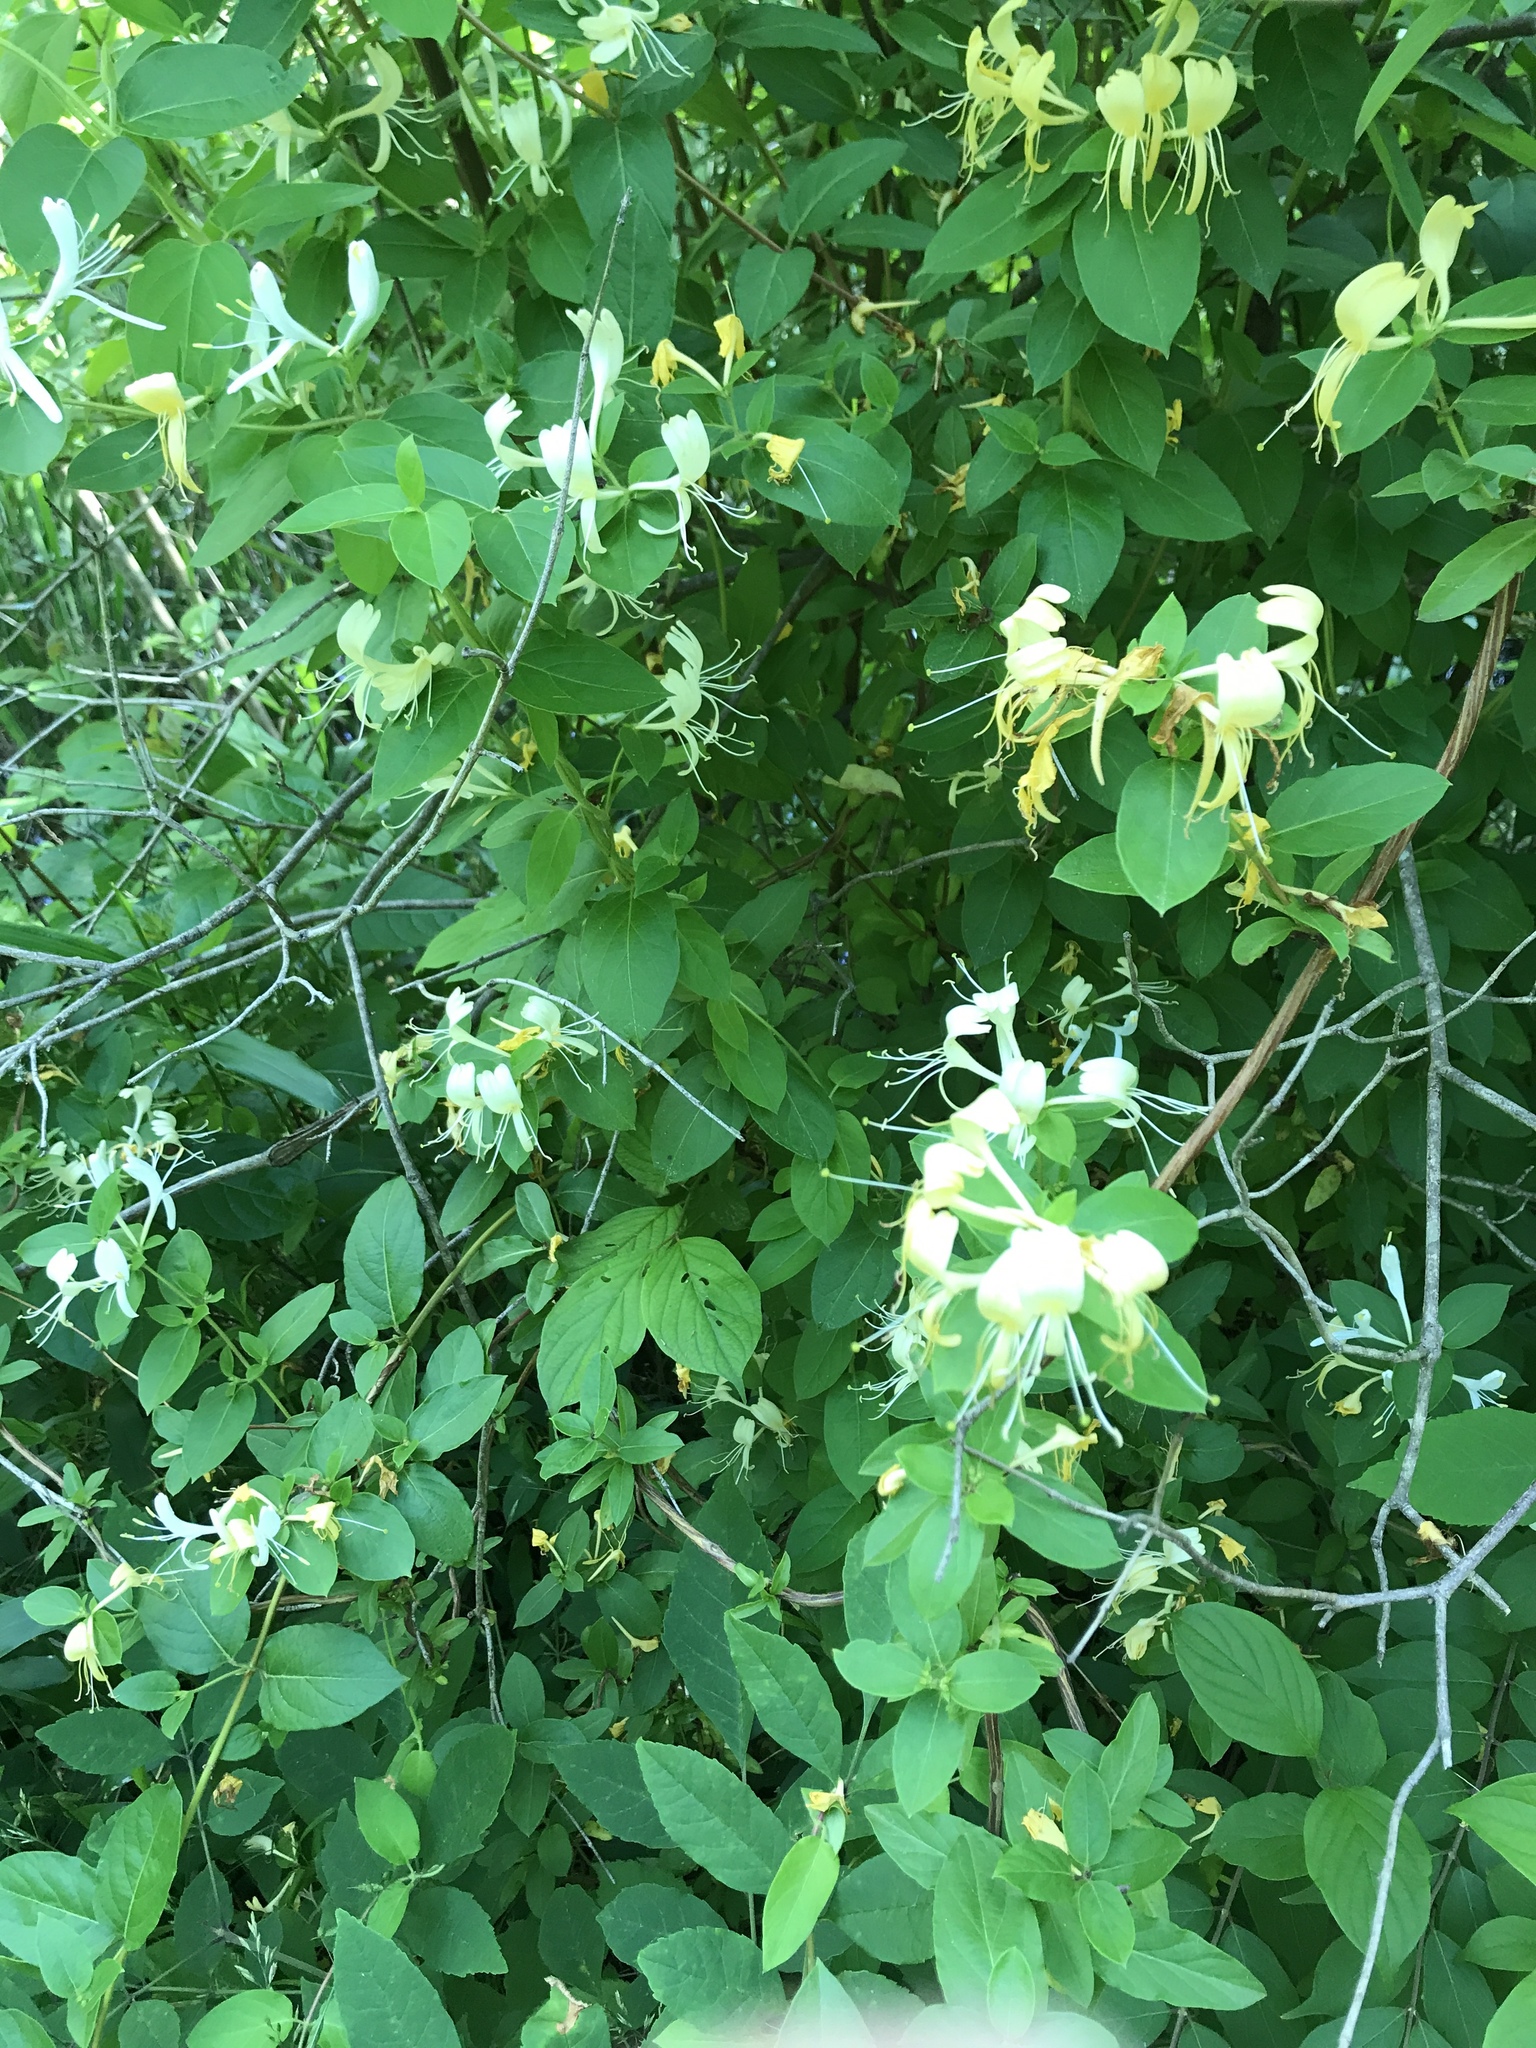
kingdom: Plantae
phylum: Tracheophyta
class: Magnoliopsida
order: Dipsacales
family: Caprifoliaceae
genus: Lonicera
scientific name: Lonicera japonica
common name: Japanese honeysuckle
